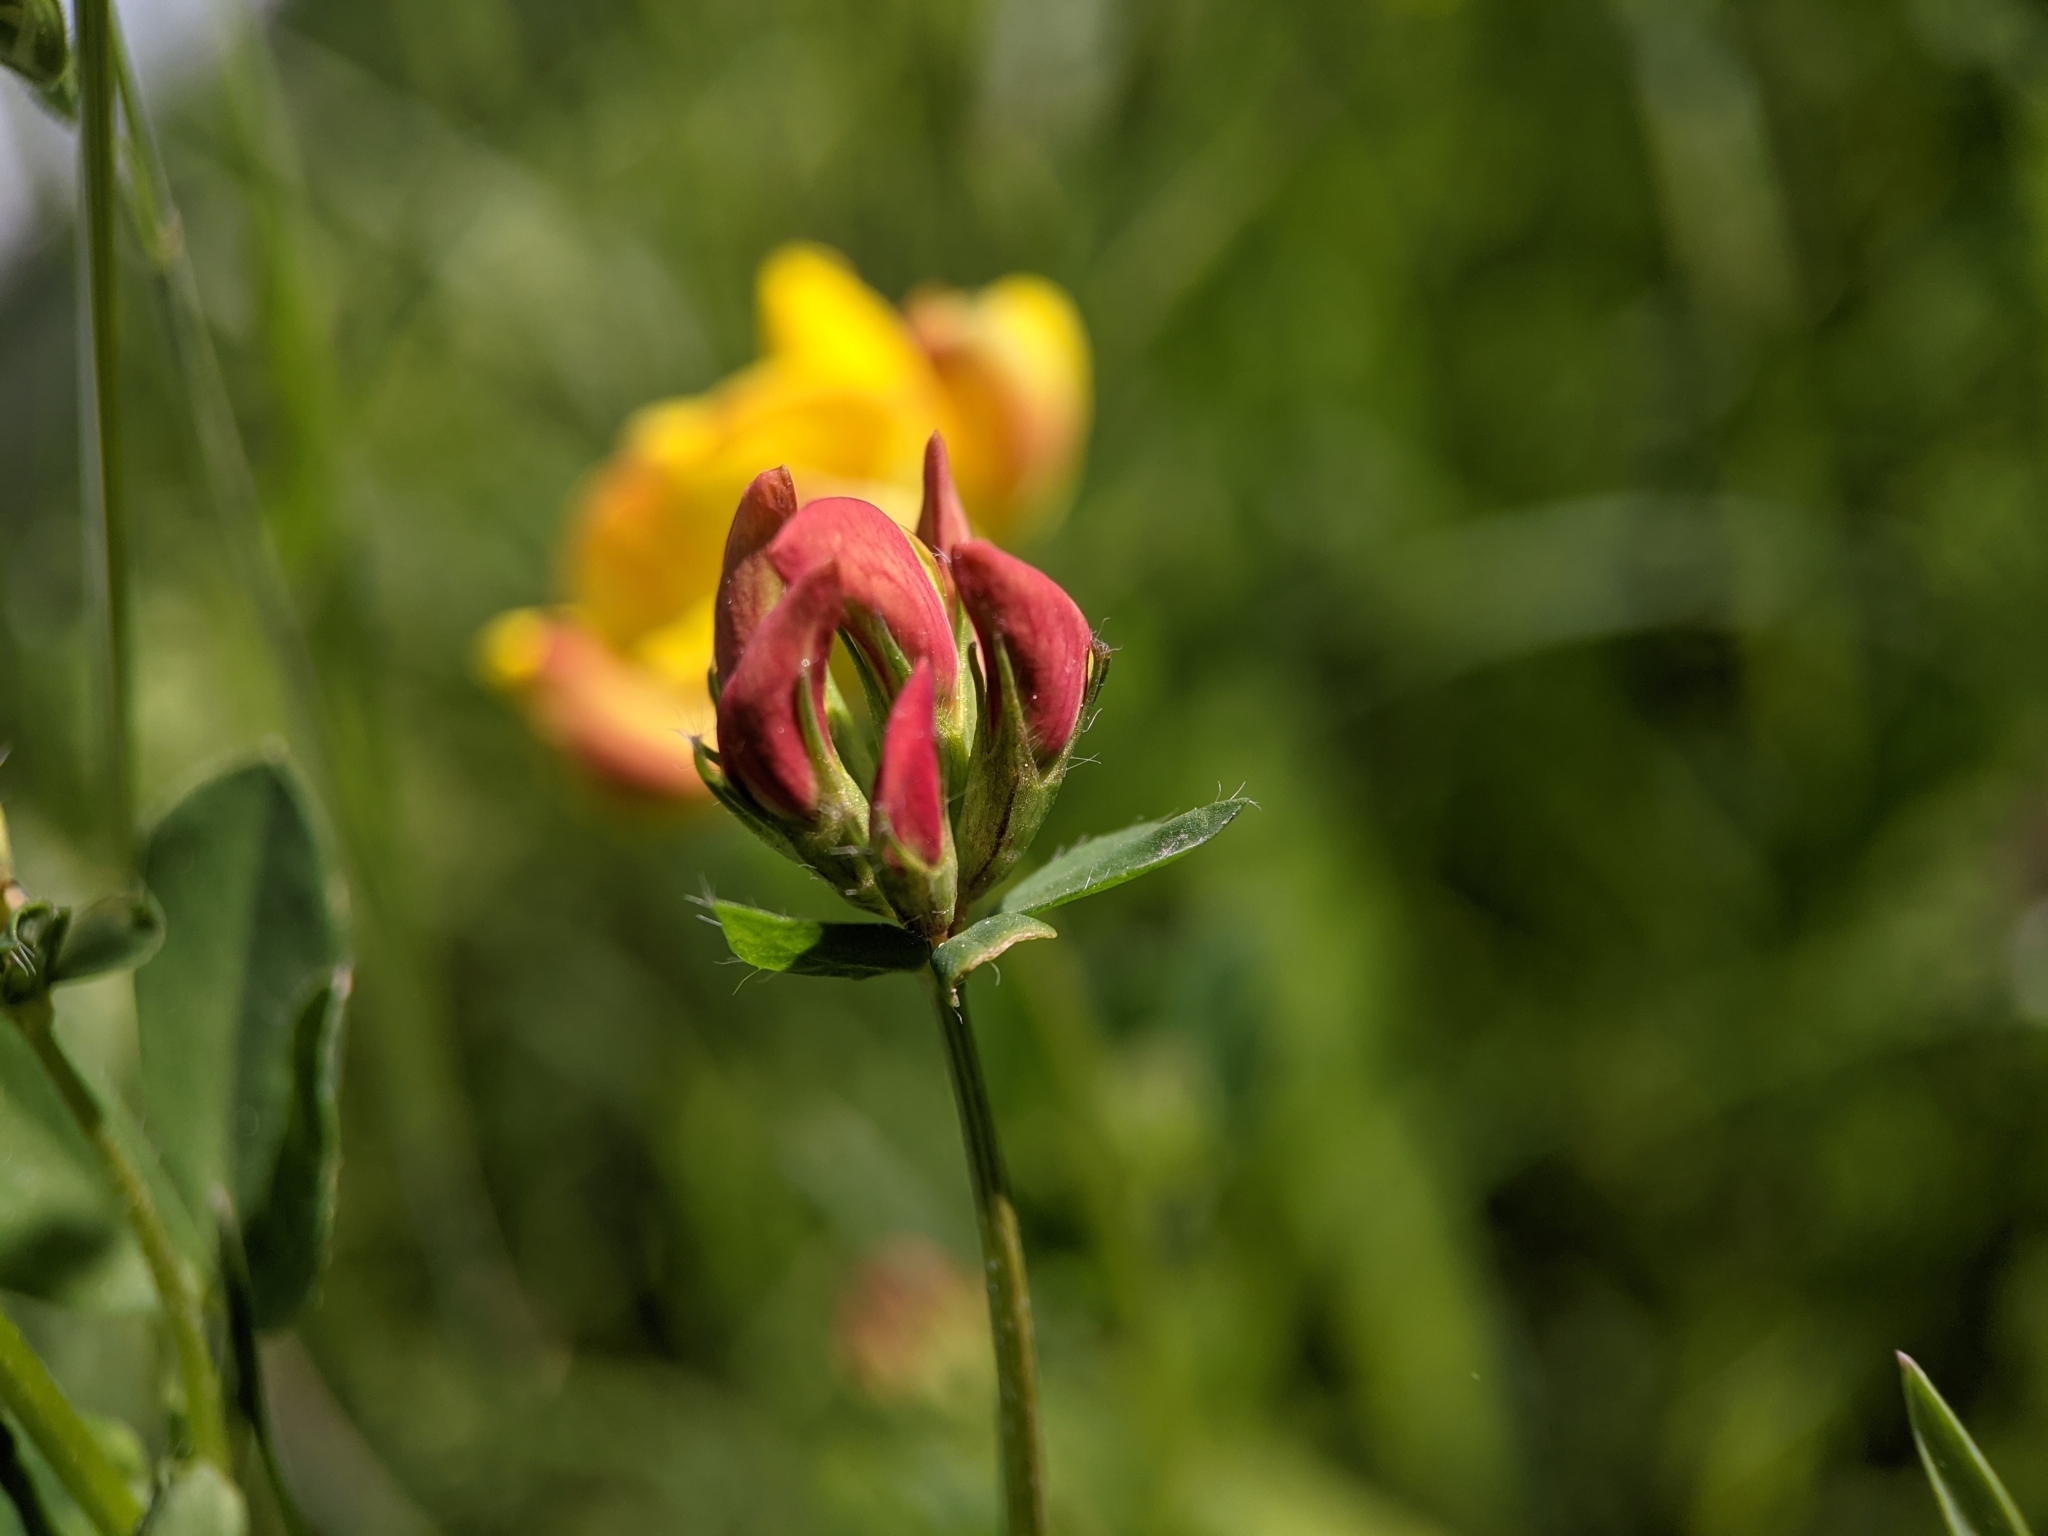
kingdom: Plantae
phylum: Tracheophyta
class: Magnoliopsida
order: Fabales
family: Fabaceae
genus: Lotus
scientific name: Lotus corniculatus
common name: Common bird's-foot-trefoil
